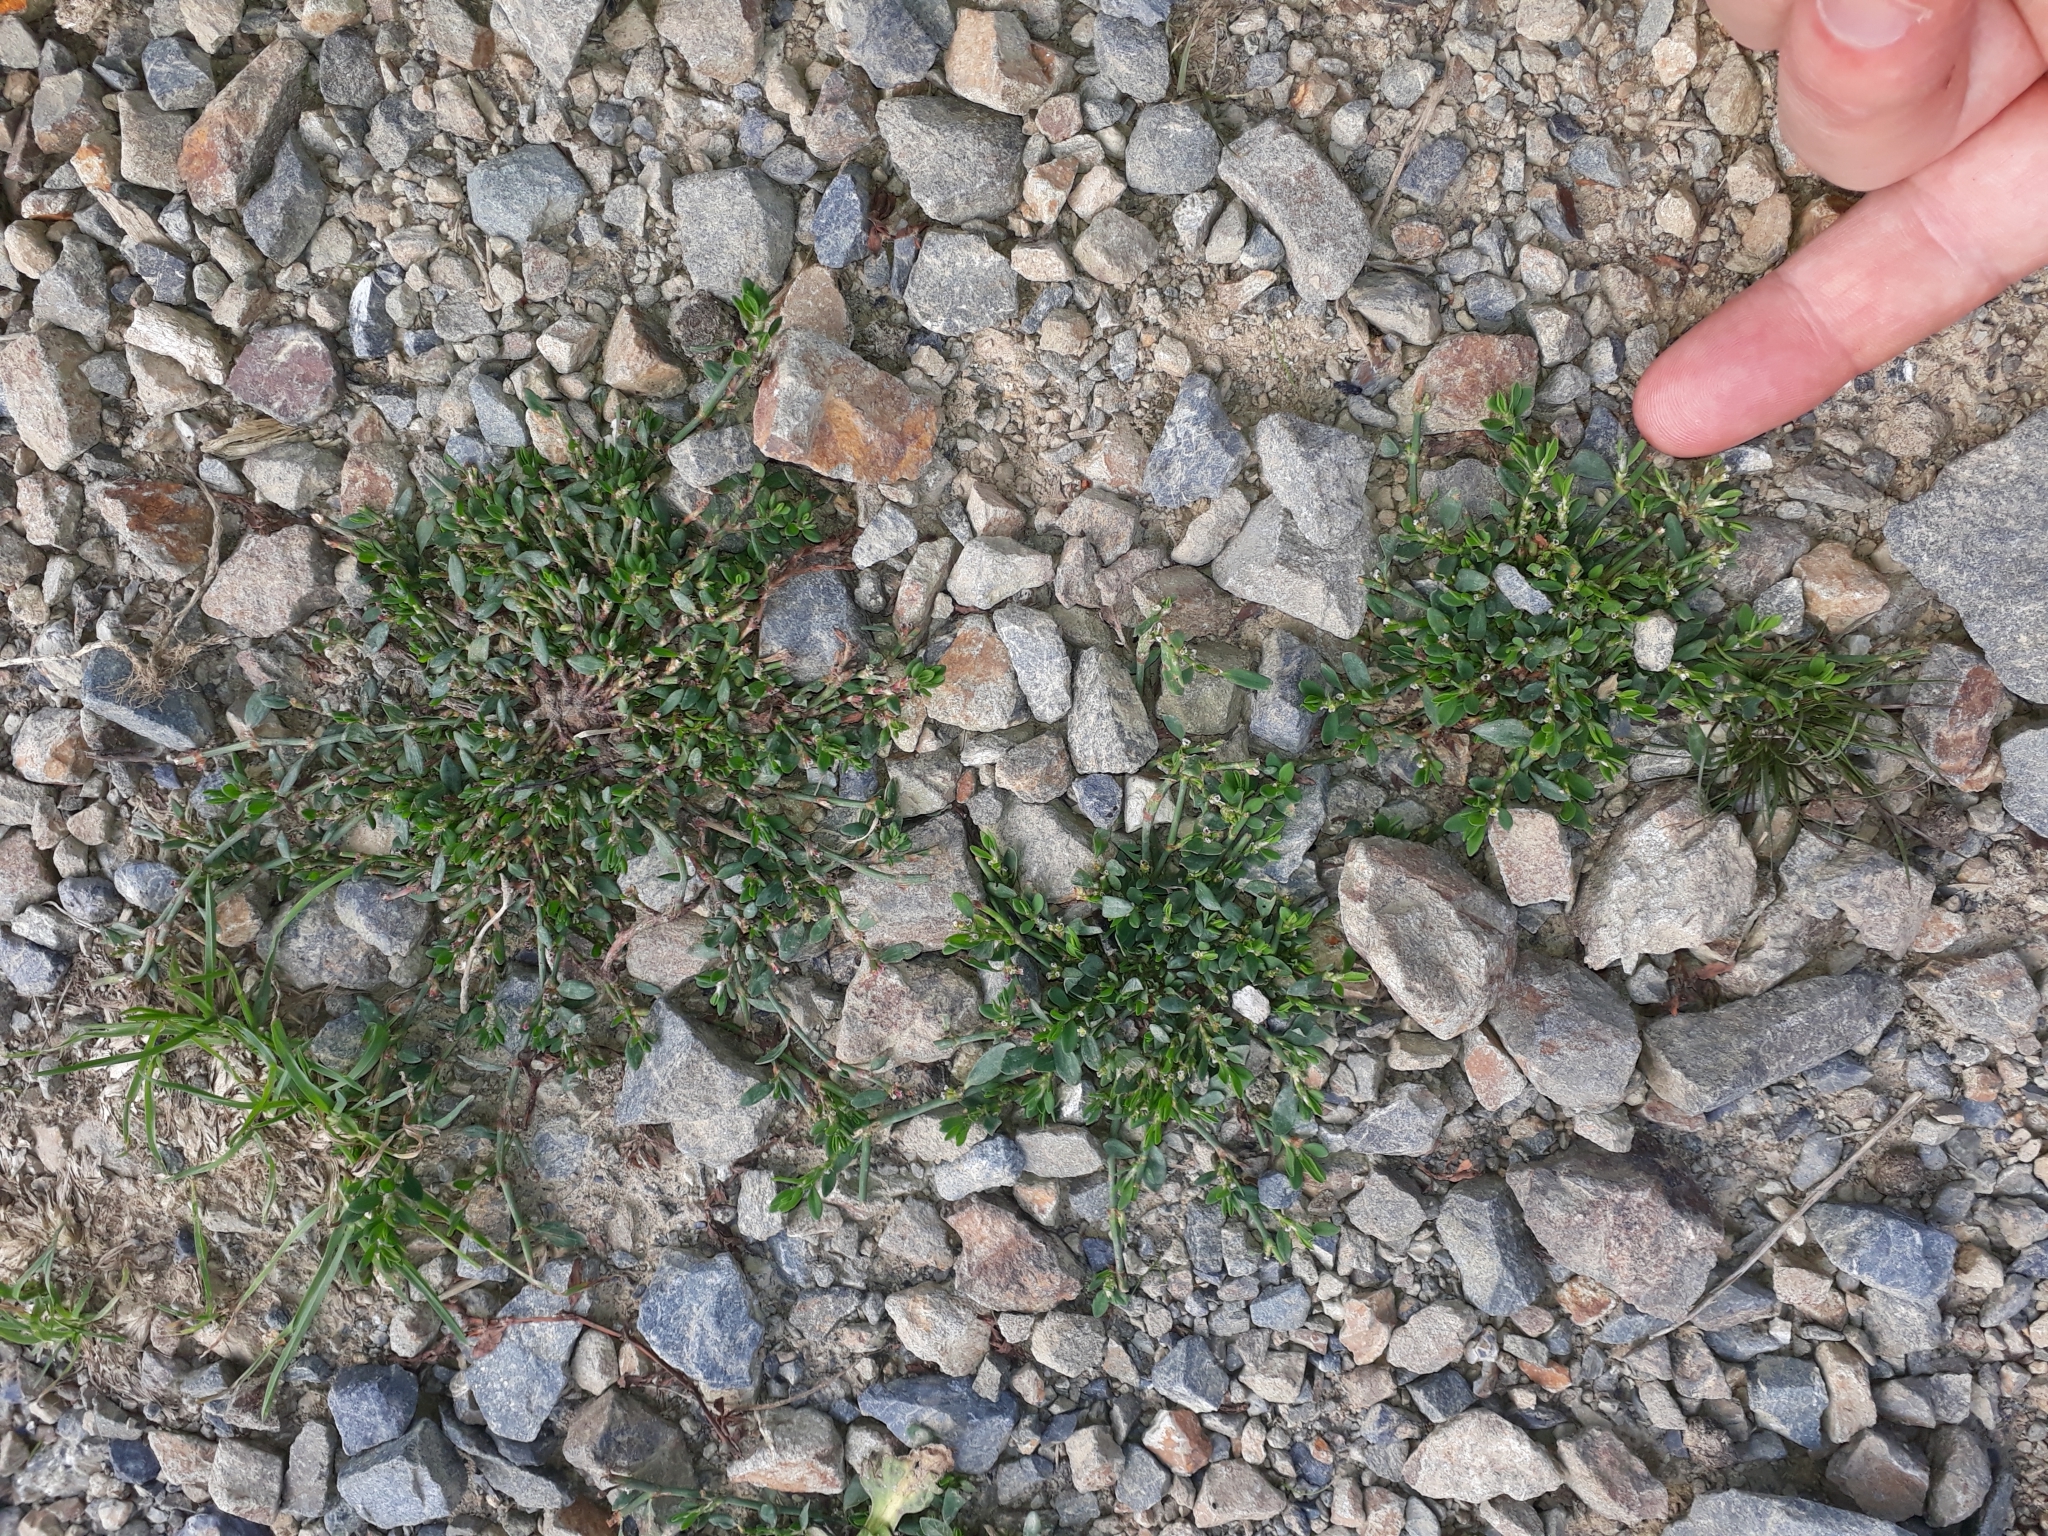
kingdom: Plantae
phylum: Tracheophyta
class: Magnoliopsida
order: Caryophyllales
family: Polygonaceae
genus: Polygonum
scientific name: Polygonum aviculare
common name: Prostrate knotweed
